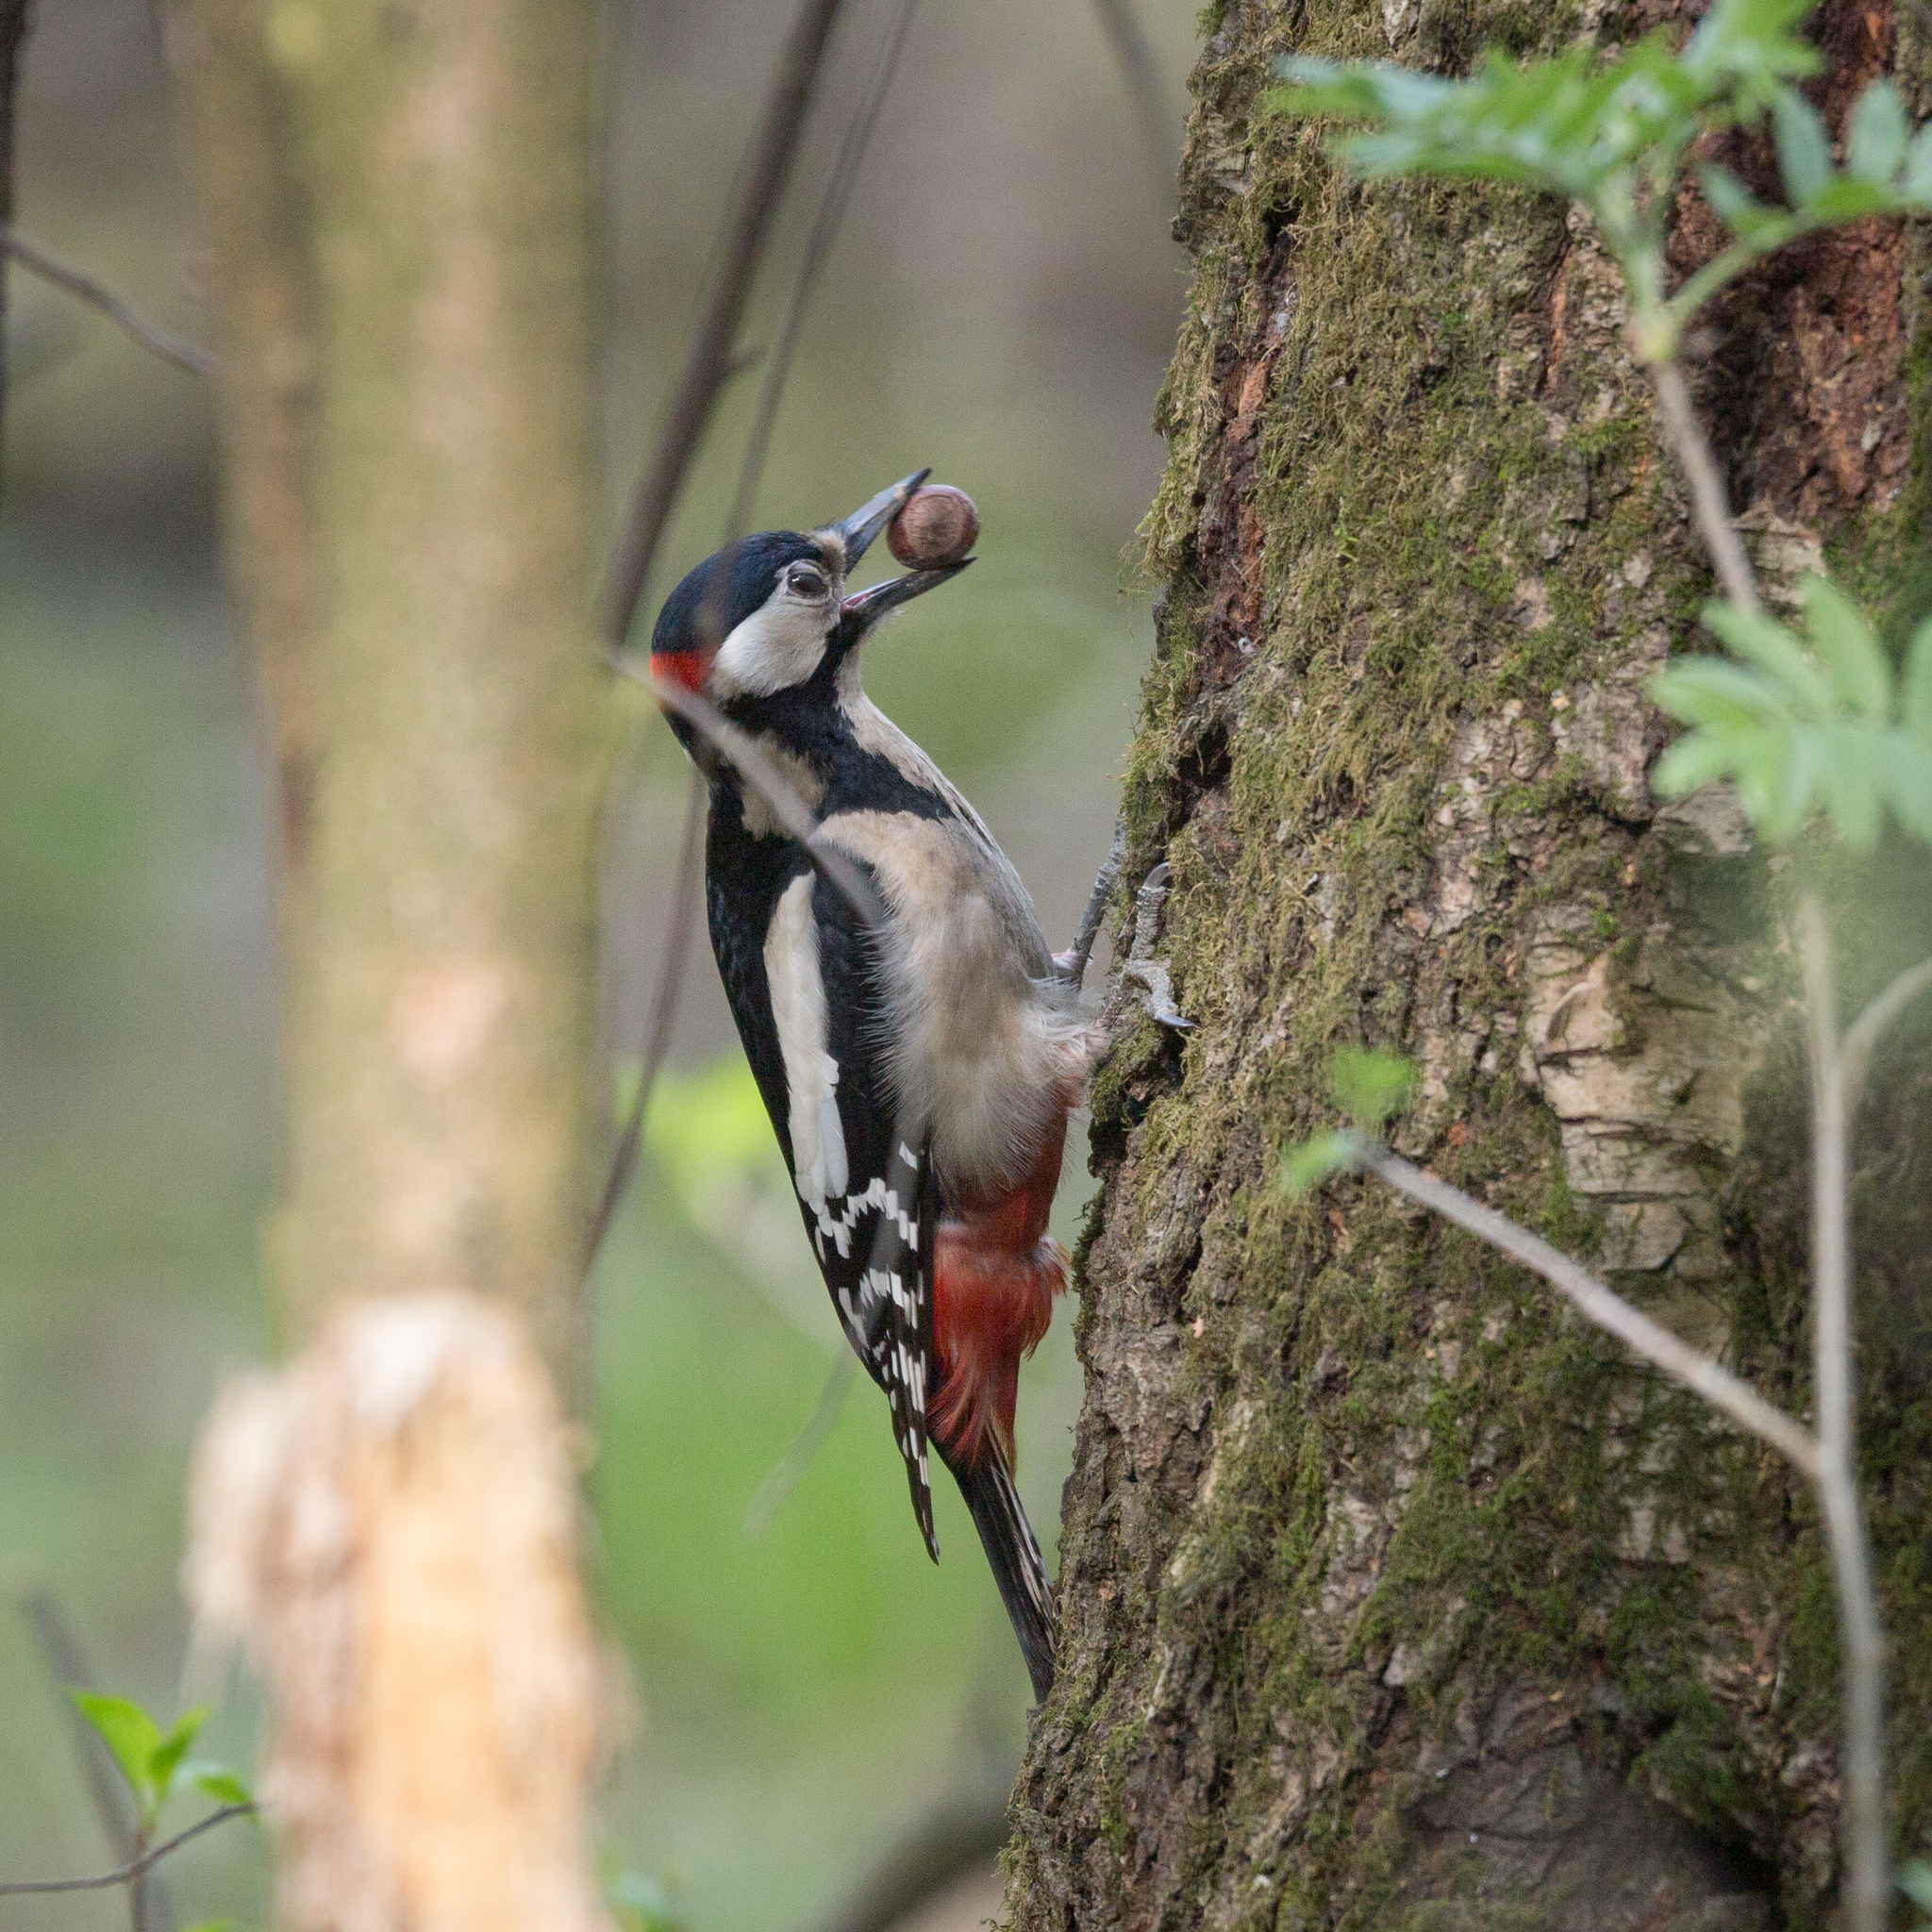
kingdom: Animalia
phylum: Chordata
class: Aves
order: Piciformes
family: Picidae
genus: Dendrocopos
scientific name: Dendrocopos major
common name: Great spotted woodpecker
